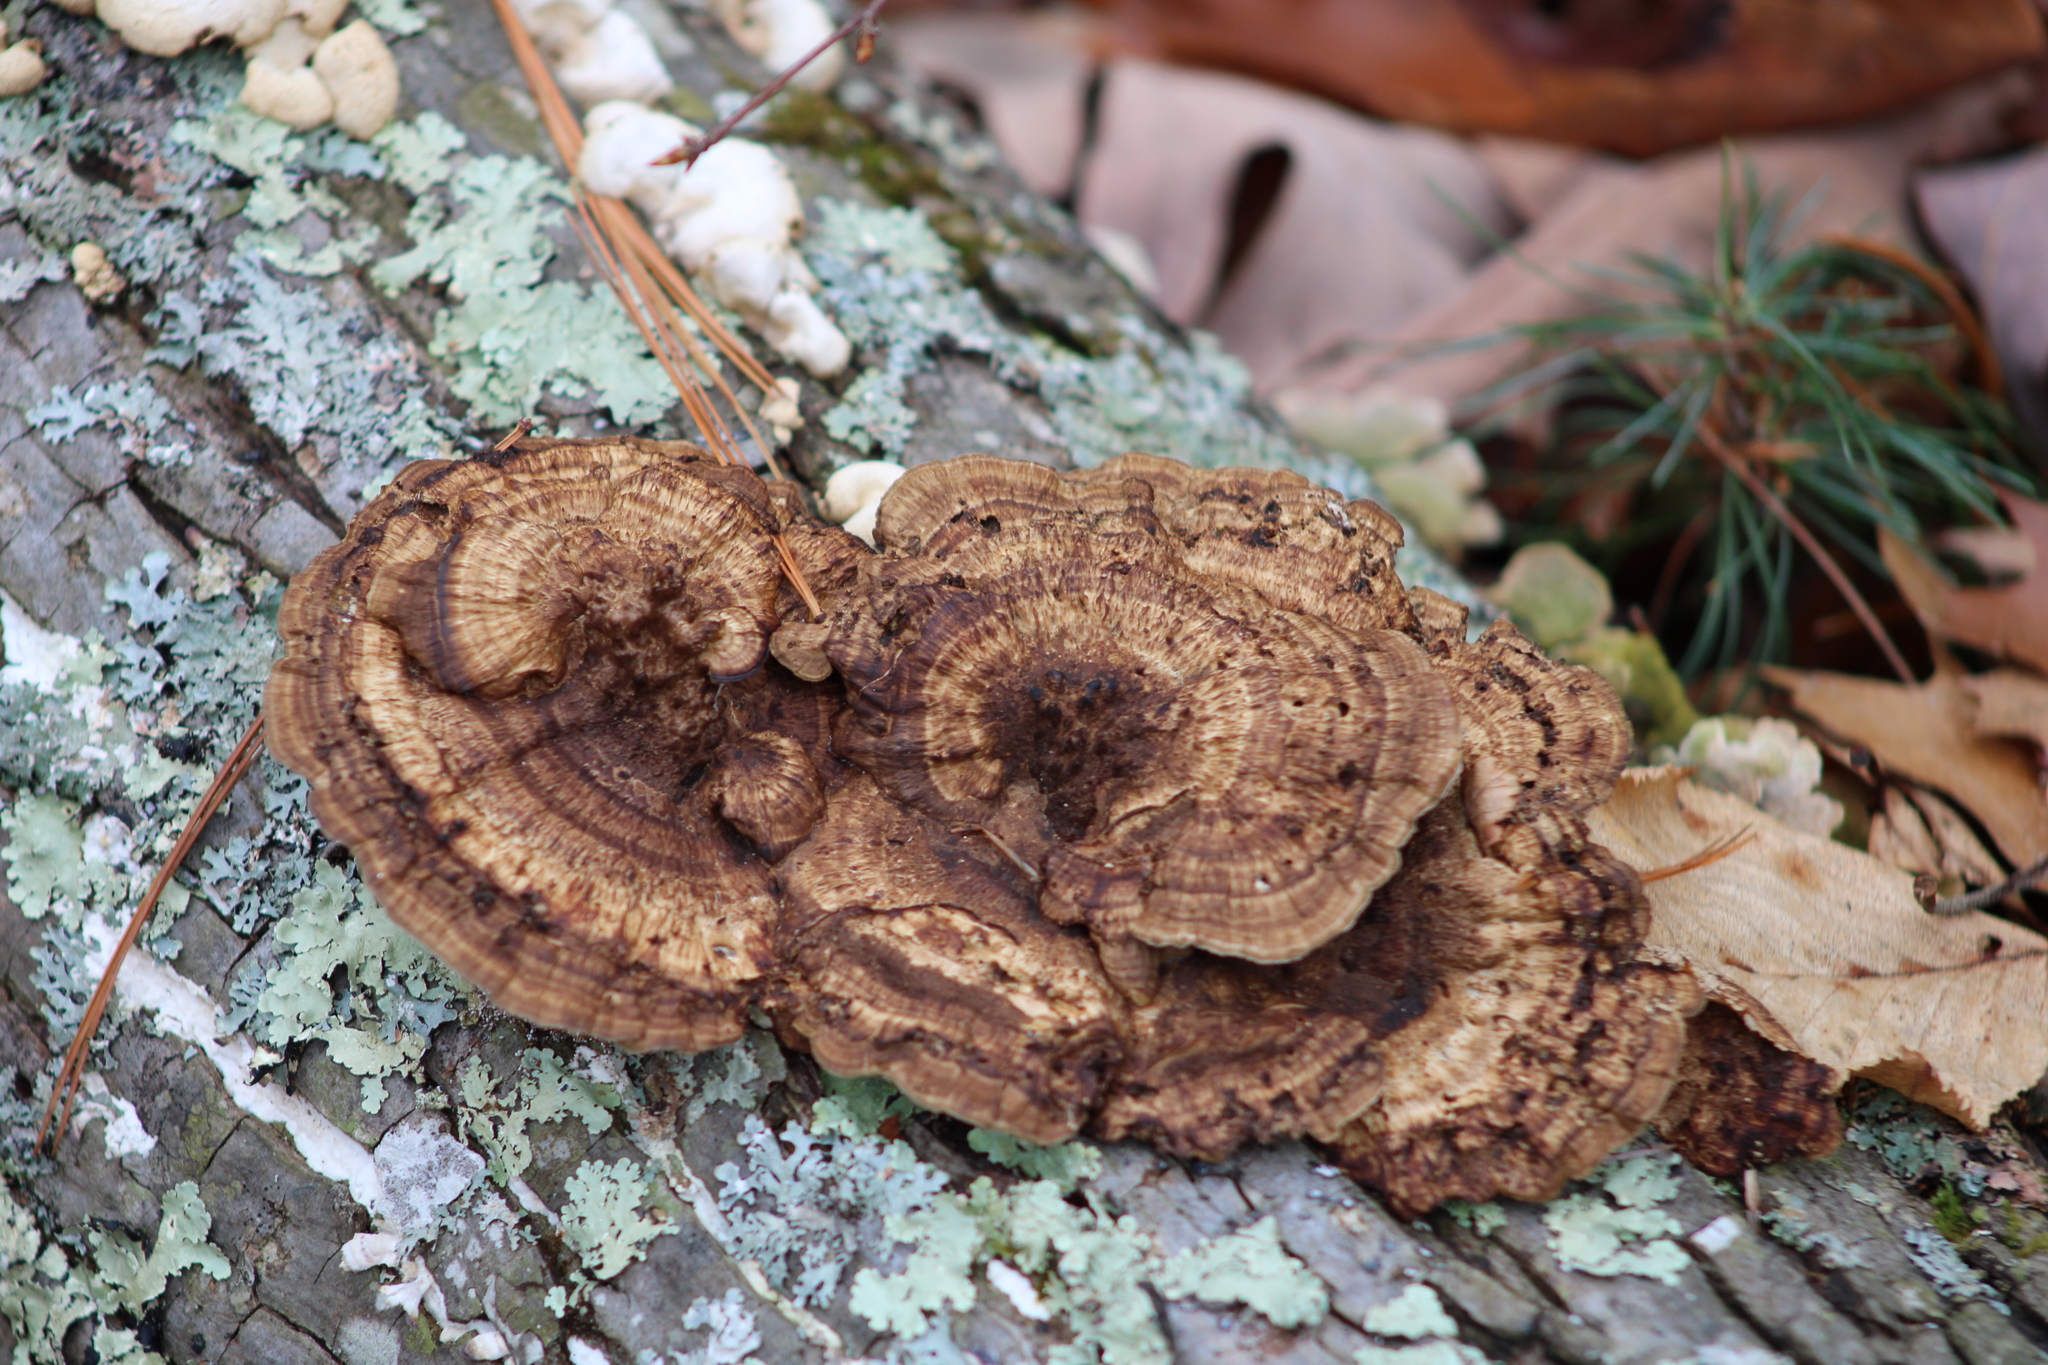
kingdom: Fungi
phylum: Basidiomycota
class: Agaricomycetes
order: Polyporales
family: Polyporaceae
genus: Daedaleopsis
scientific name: Daedaleopsis confragosa
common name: Blushing bracket
